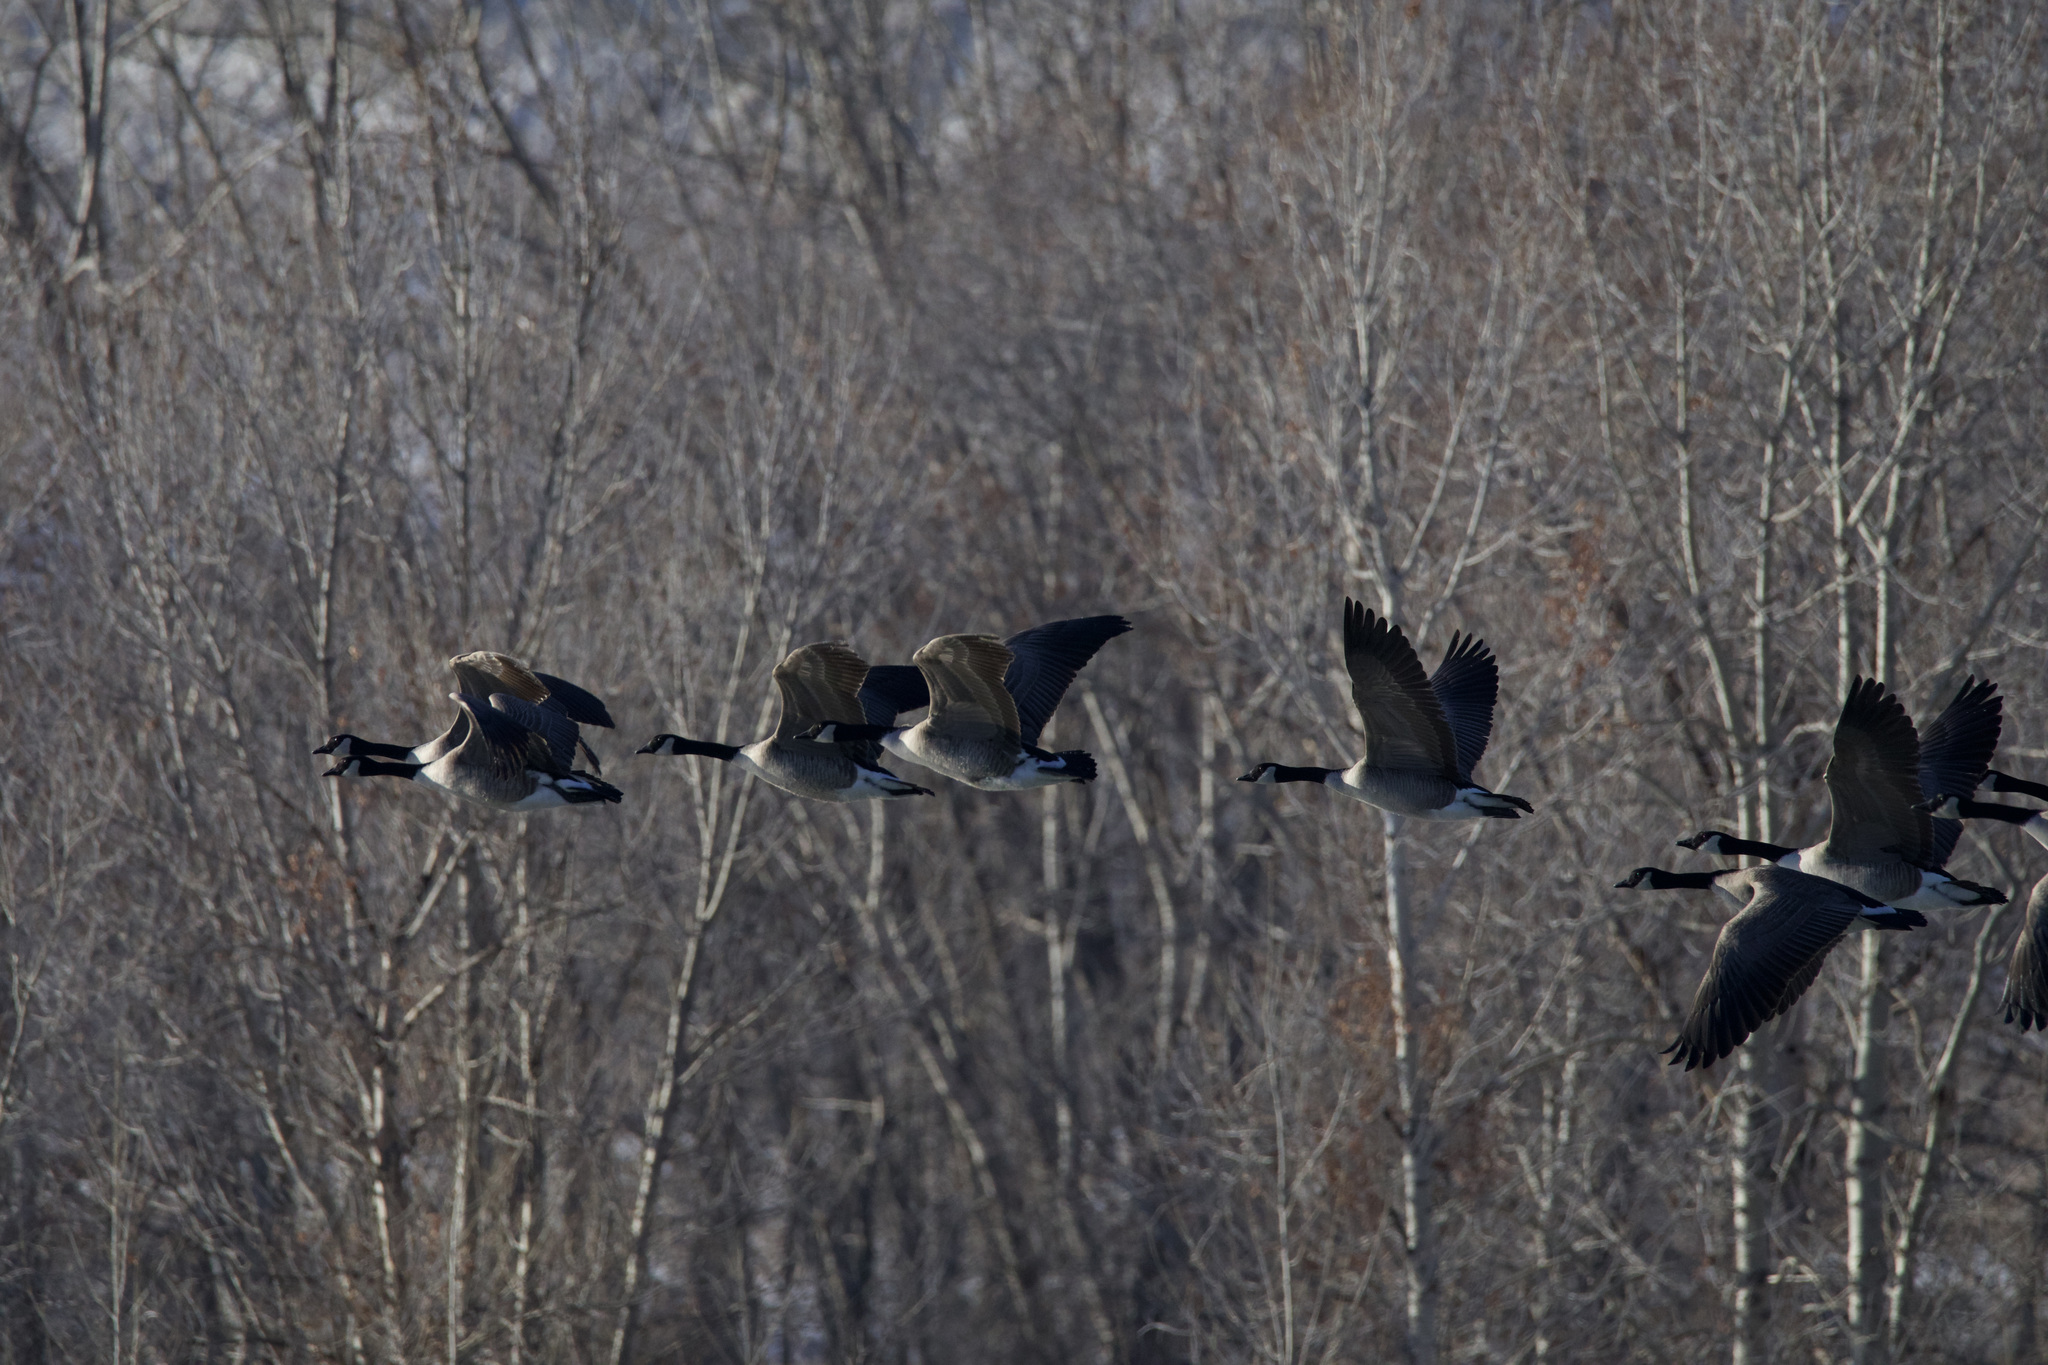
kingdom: Animalia
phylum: Chordata
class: Aves
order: Anseriformes
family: Anatidae
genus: Branta
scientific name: Branta canadensis
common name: Canada goose
